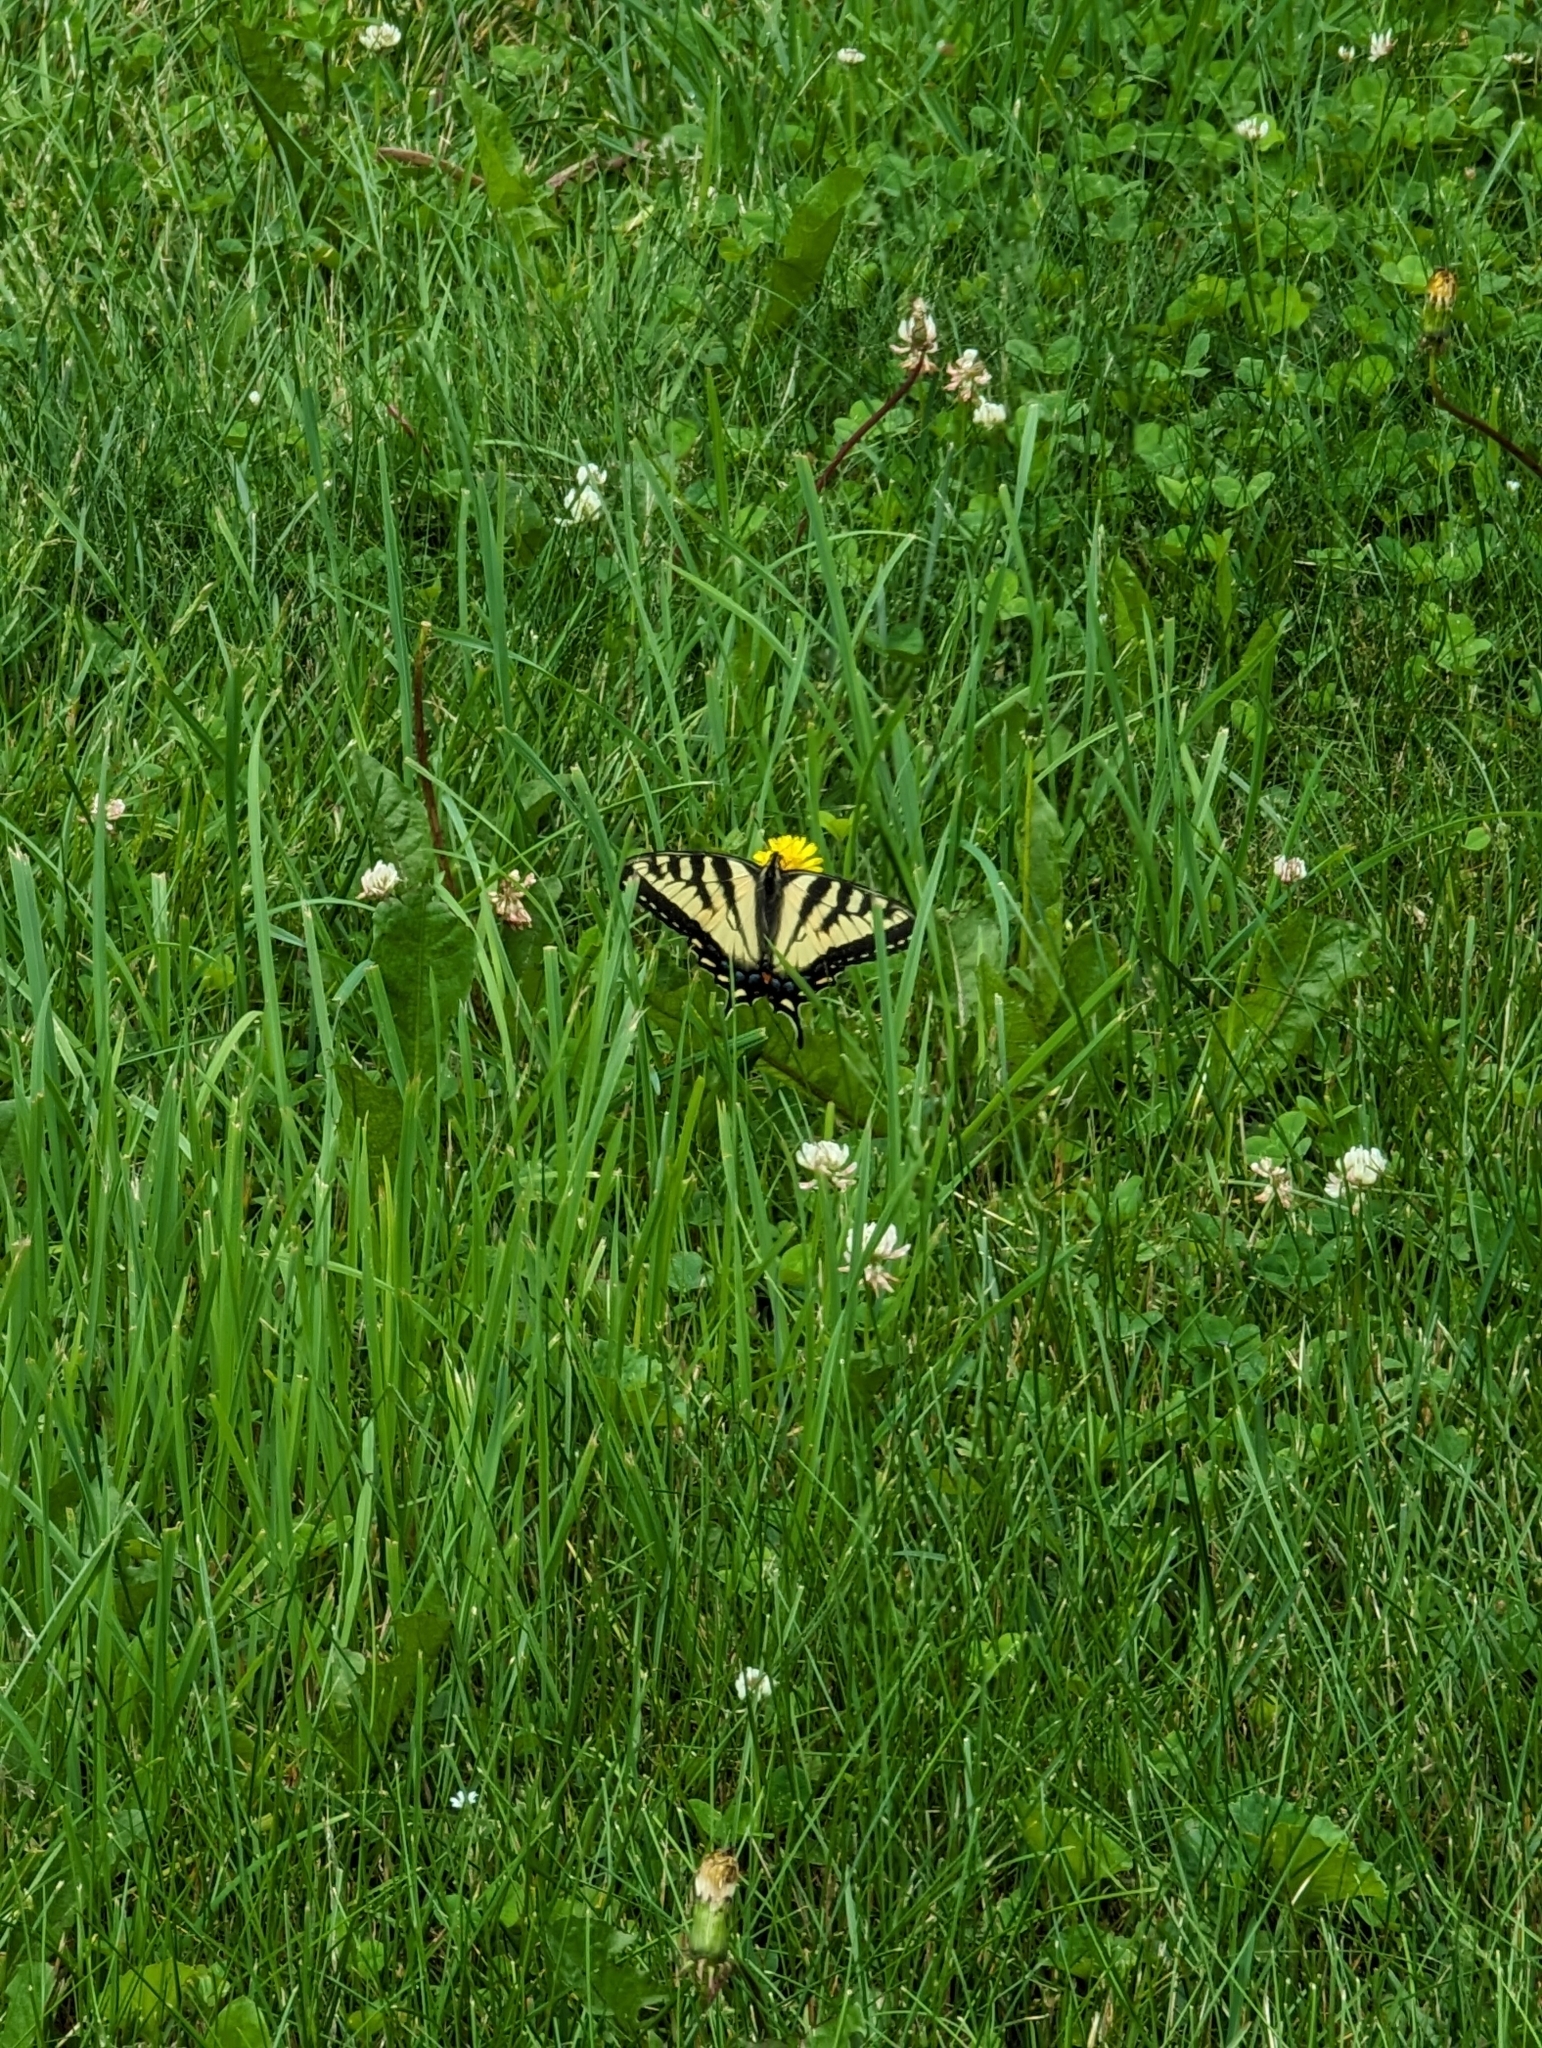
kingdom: Plantae
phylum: Tracheophyta
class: Magnoliopsida
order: Fabales
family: Fabaceae
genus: Trifolium
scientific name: Trifolium repens
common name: White clover
